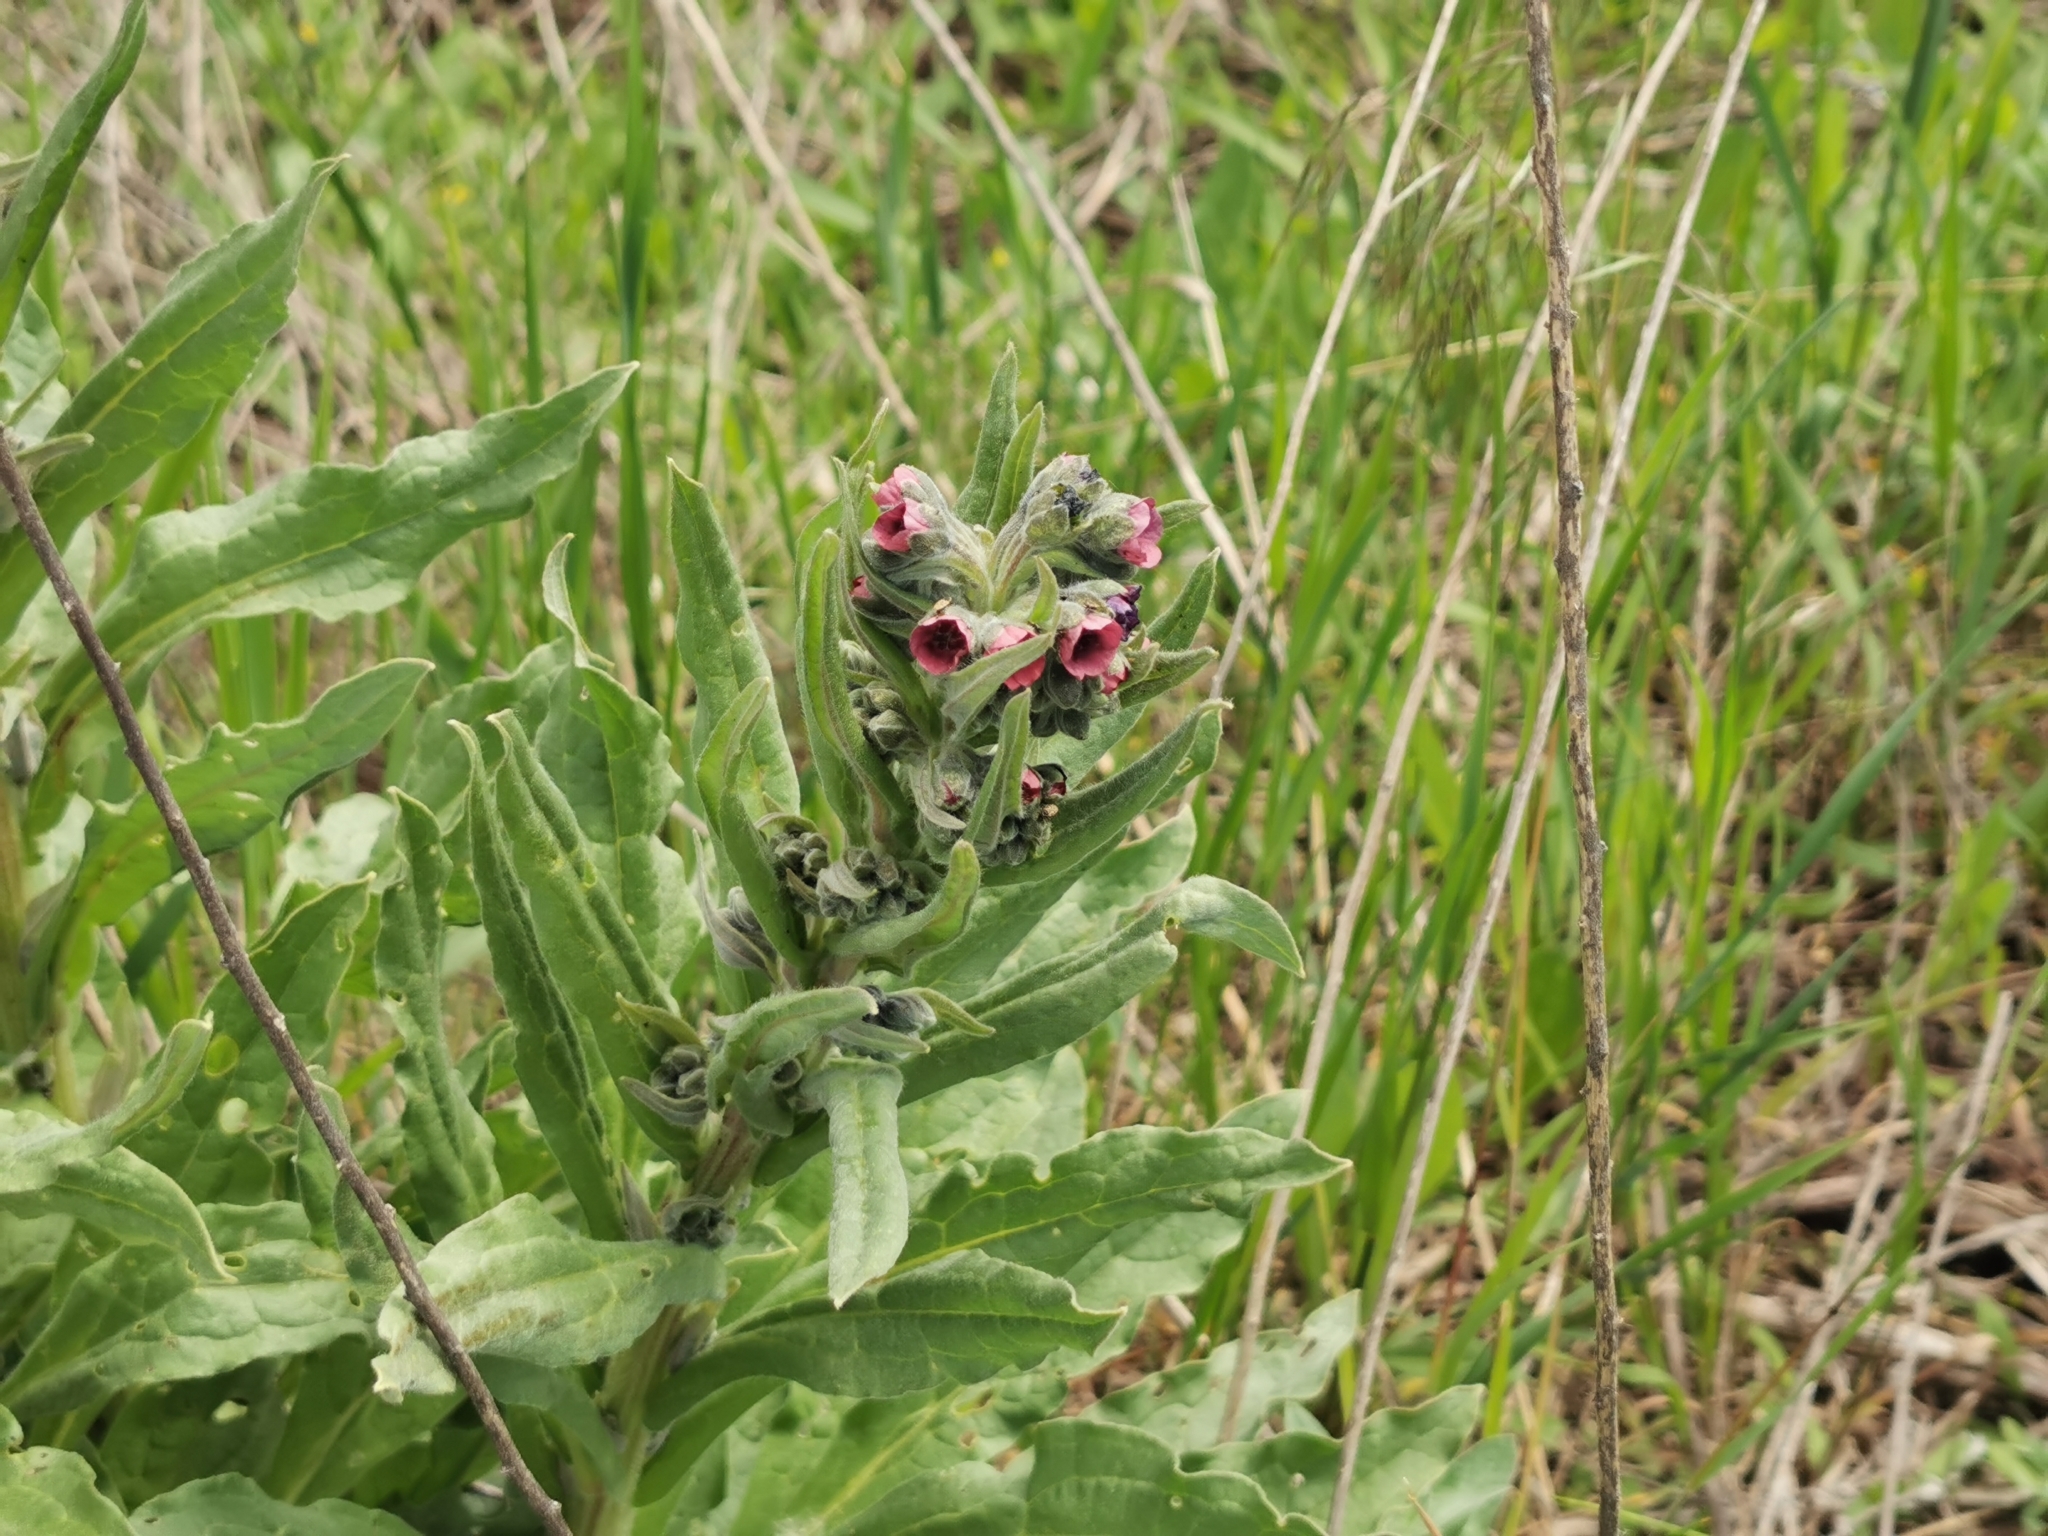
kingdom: Plantae
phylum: Tracheophyta
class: Magnoliopsida
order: Boraginales
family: Boraginaceae
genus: Cynoglossum
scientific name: Cynoglossum officinale
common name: Hound's-tongue
